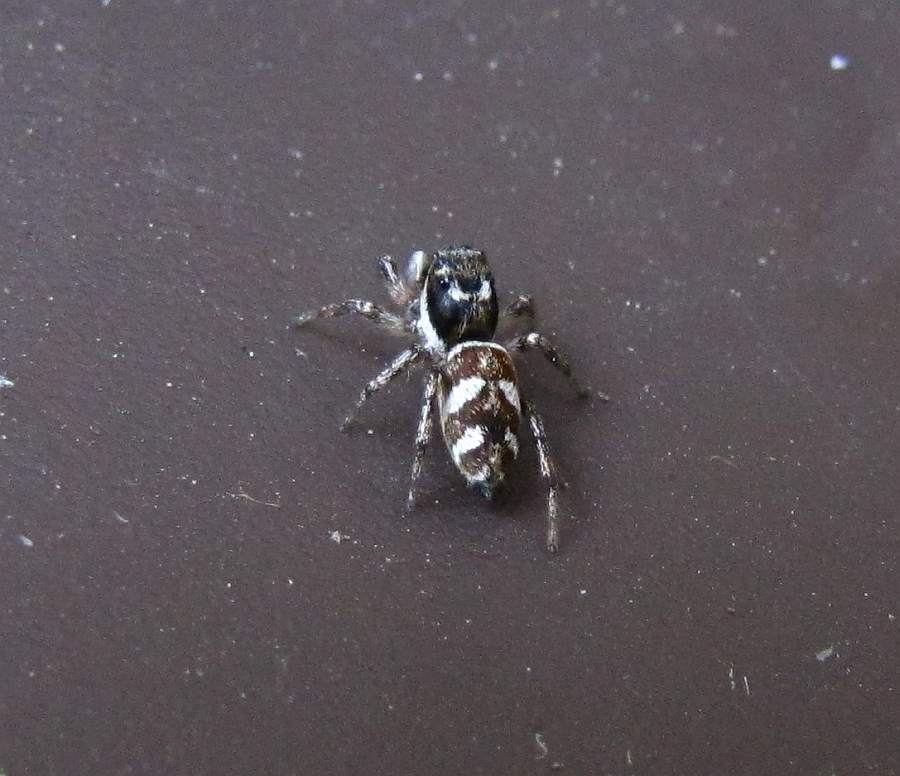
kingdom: Animalia
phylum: Arthropoda
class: Arachnida
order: Araneae
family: Salticidae
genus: Salticus
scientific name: Salticus scenicus
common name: Zebra jumper
